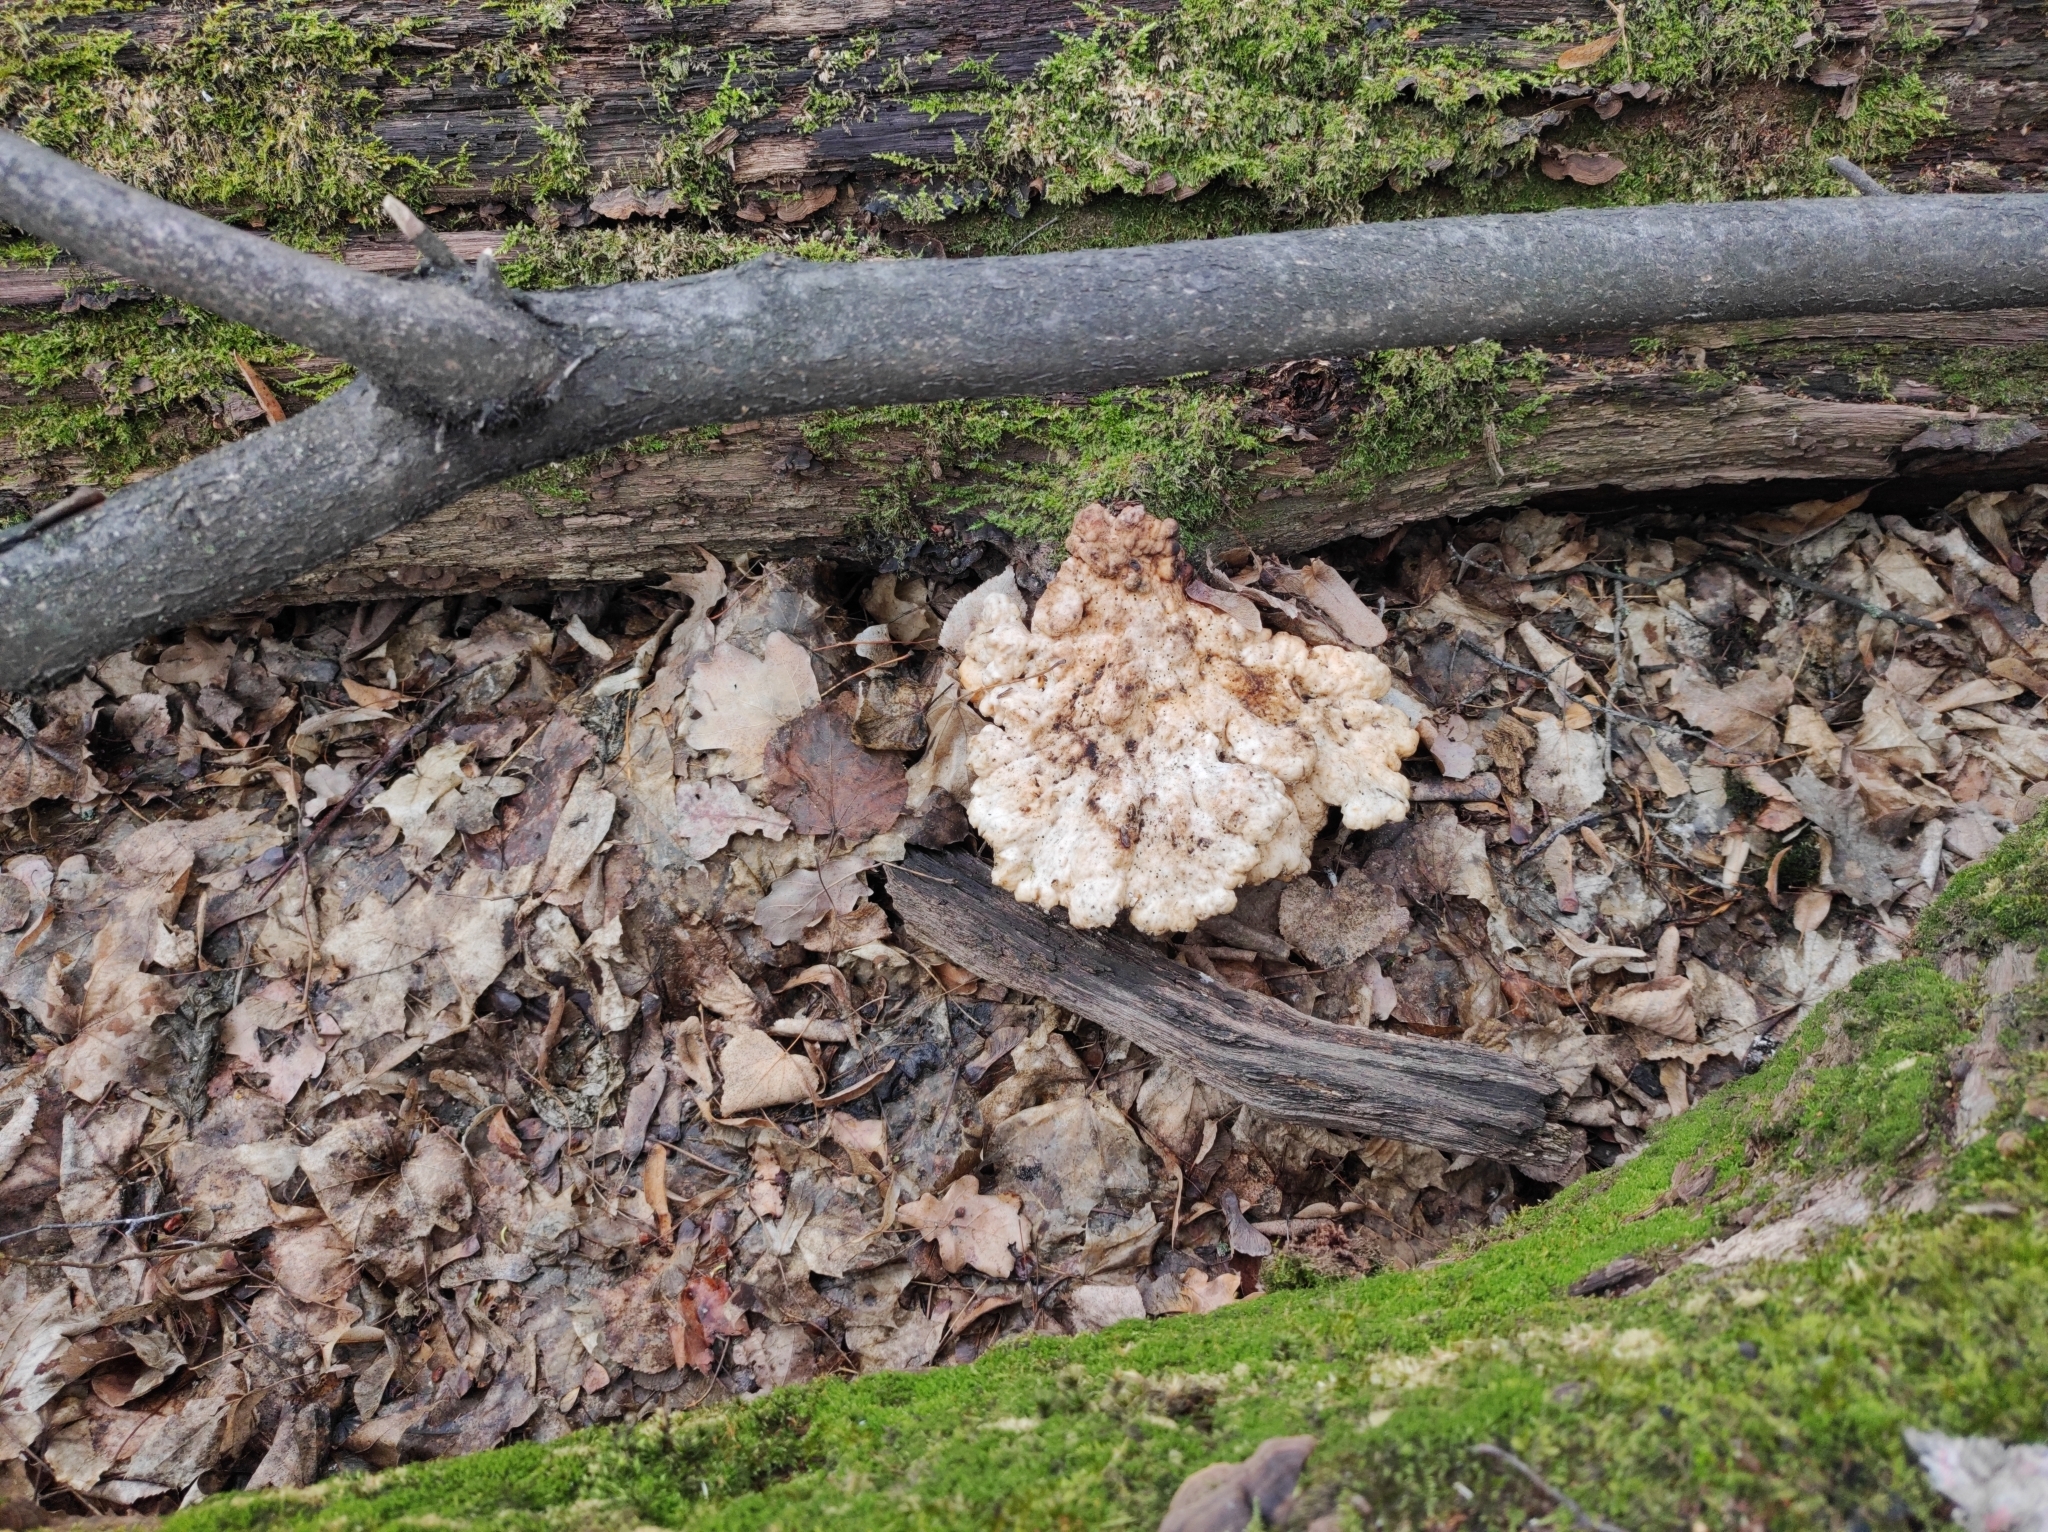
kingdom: Fungi
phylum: Basidiomycota
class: Agaricomycetes
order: Polyporales
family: Laetiporaceae
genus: Laetiporus
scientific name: Laetiporus sulphureus
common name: Chicken of the woods
